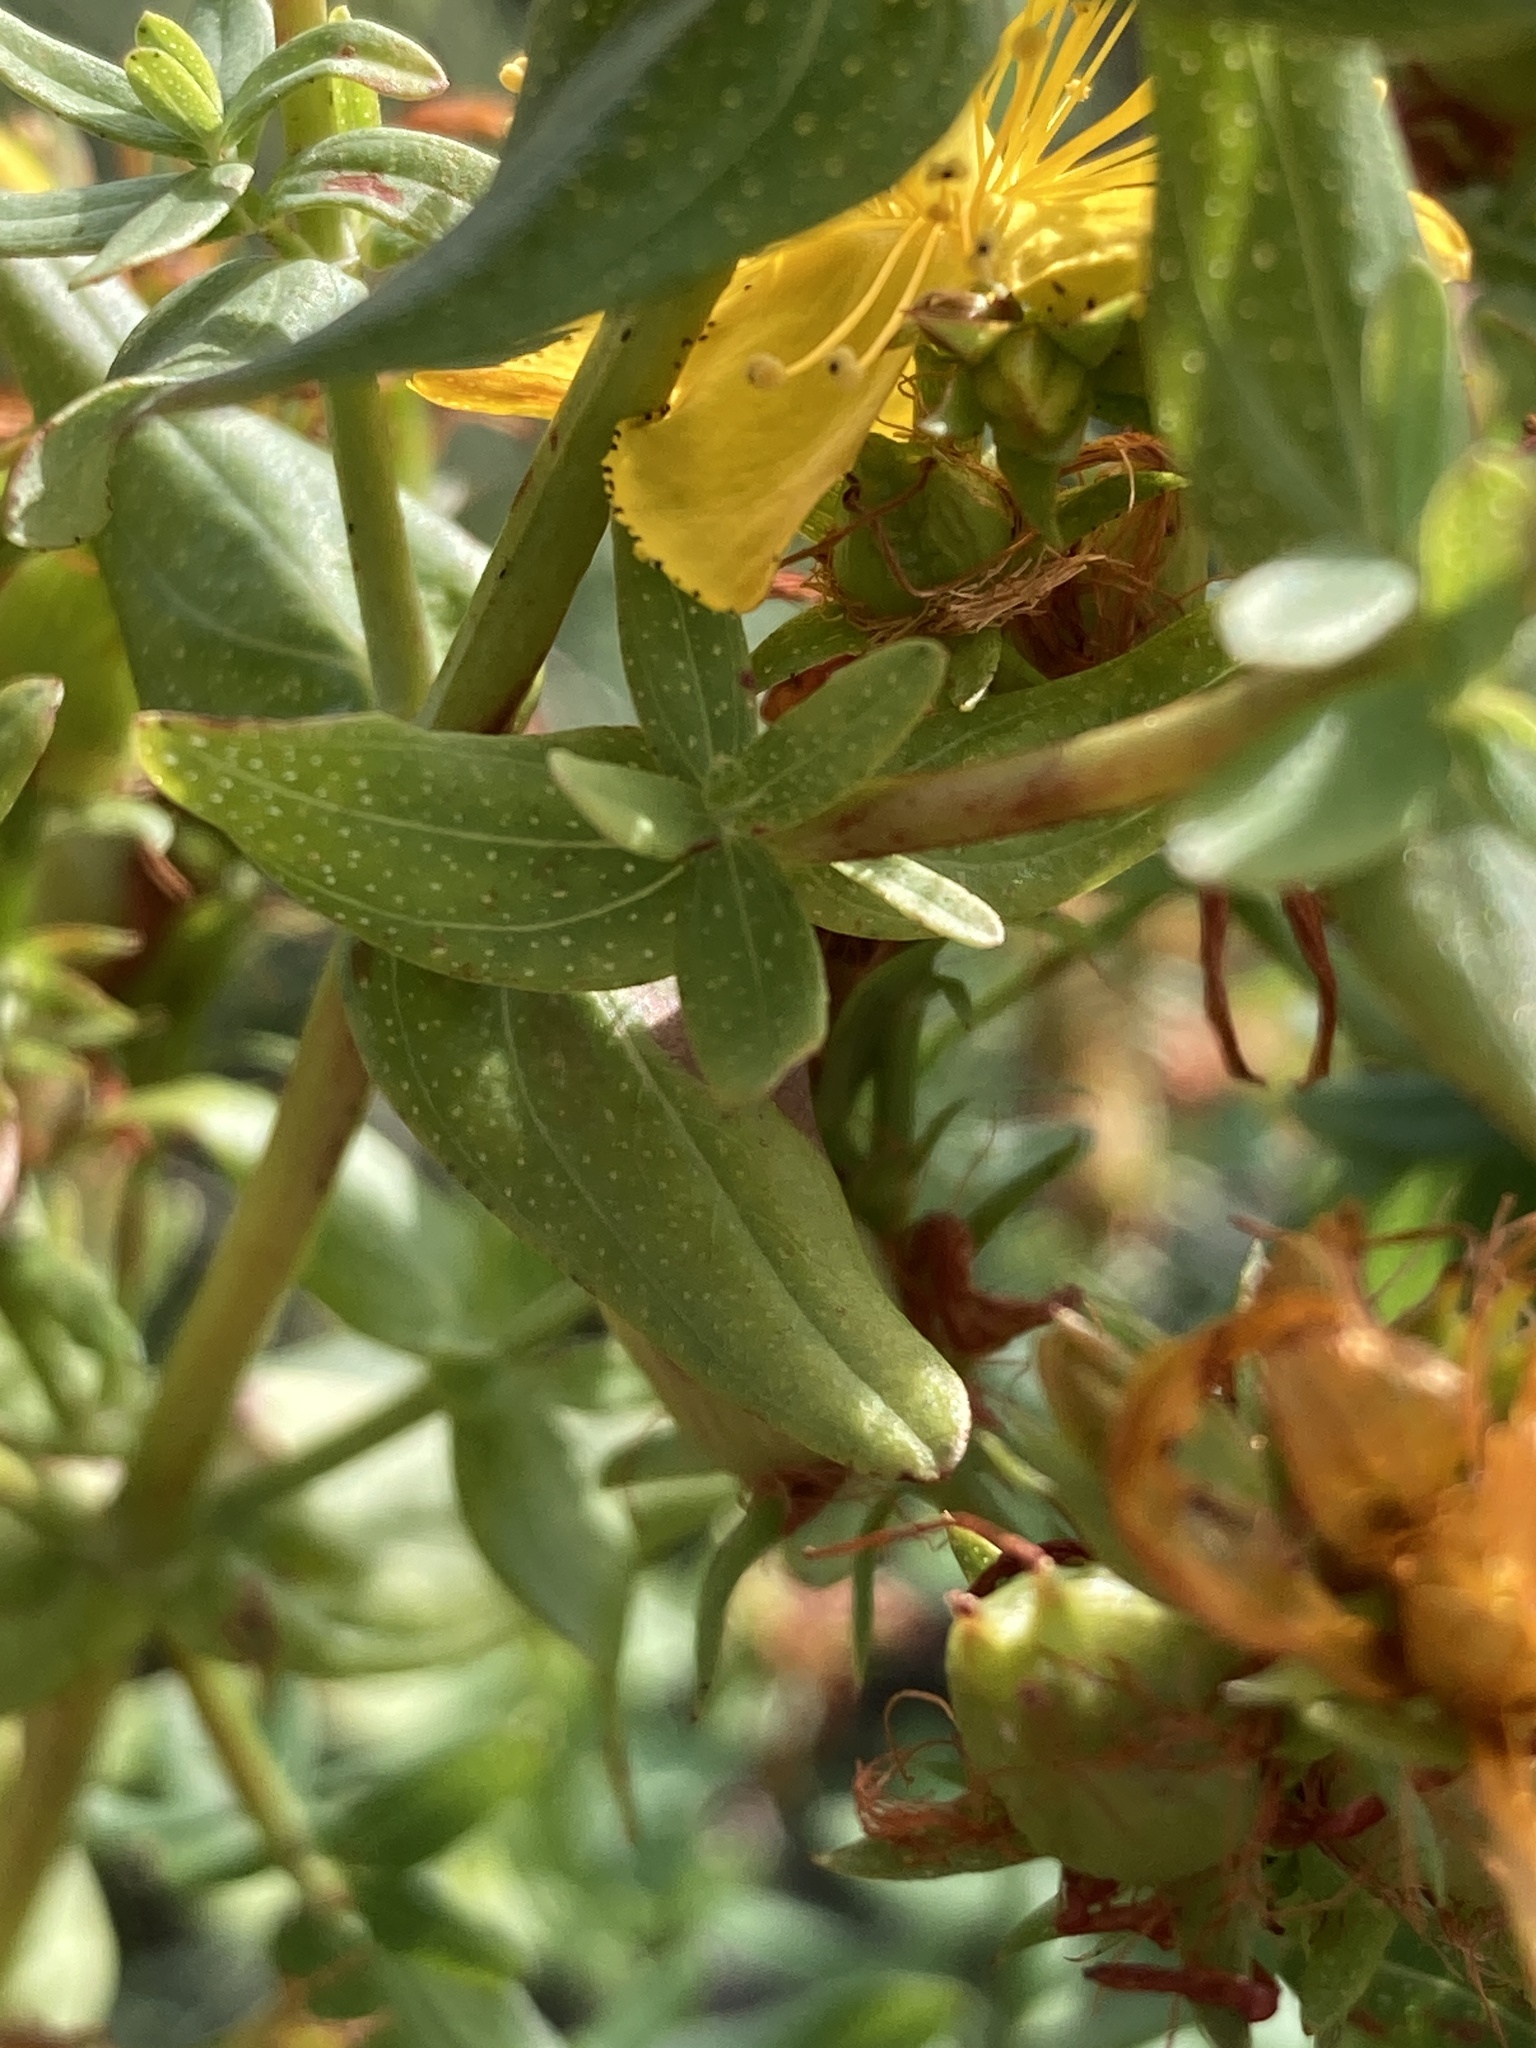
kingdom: Plantae
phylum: Tracheophyta
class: Magnoliopsida
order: Malpighiales
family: Hypericaceae
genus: Hypericum
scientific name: Hypericum perforatum
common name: Common st. johnswort
